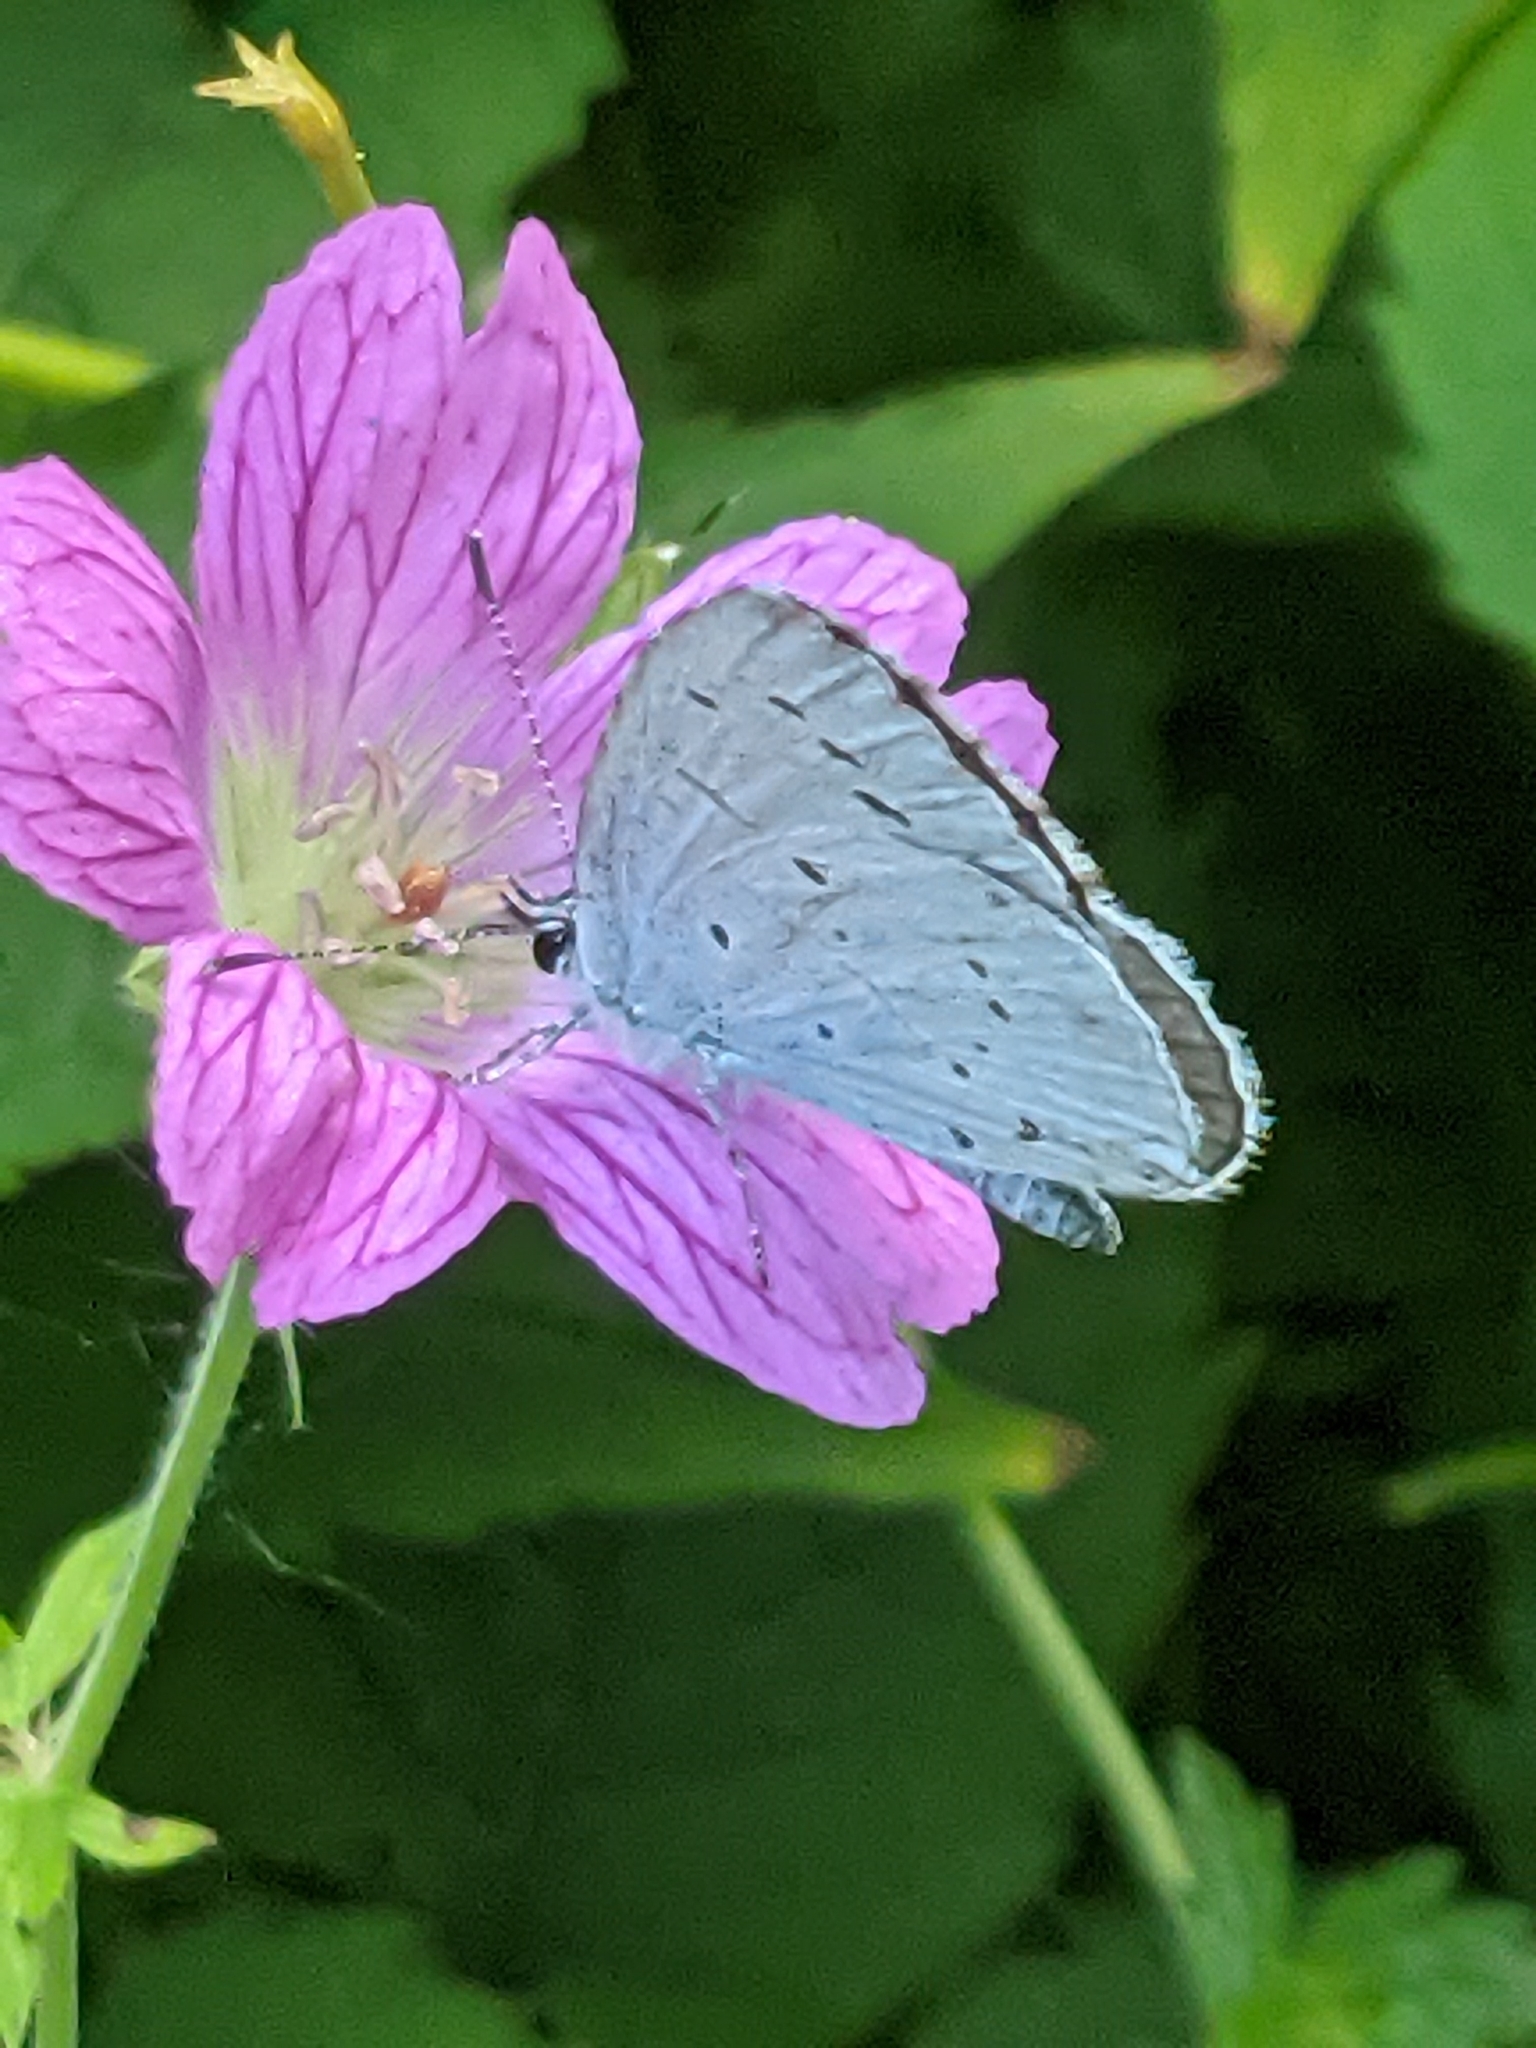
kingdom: Animalia
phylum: Arthropoda
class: Insecta
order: Lepidoptera
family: Lycaenidae
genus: Celastrina
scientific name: Celastrina argiolus
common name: Holly blue
